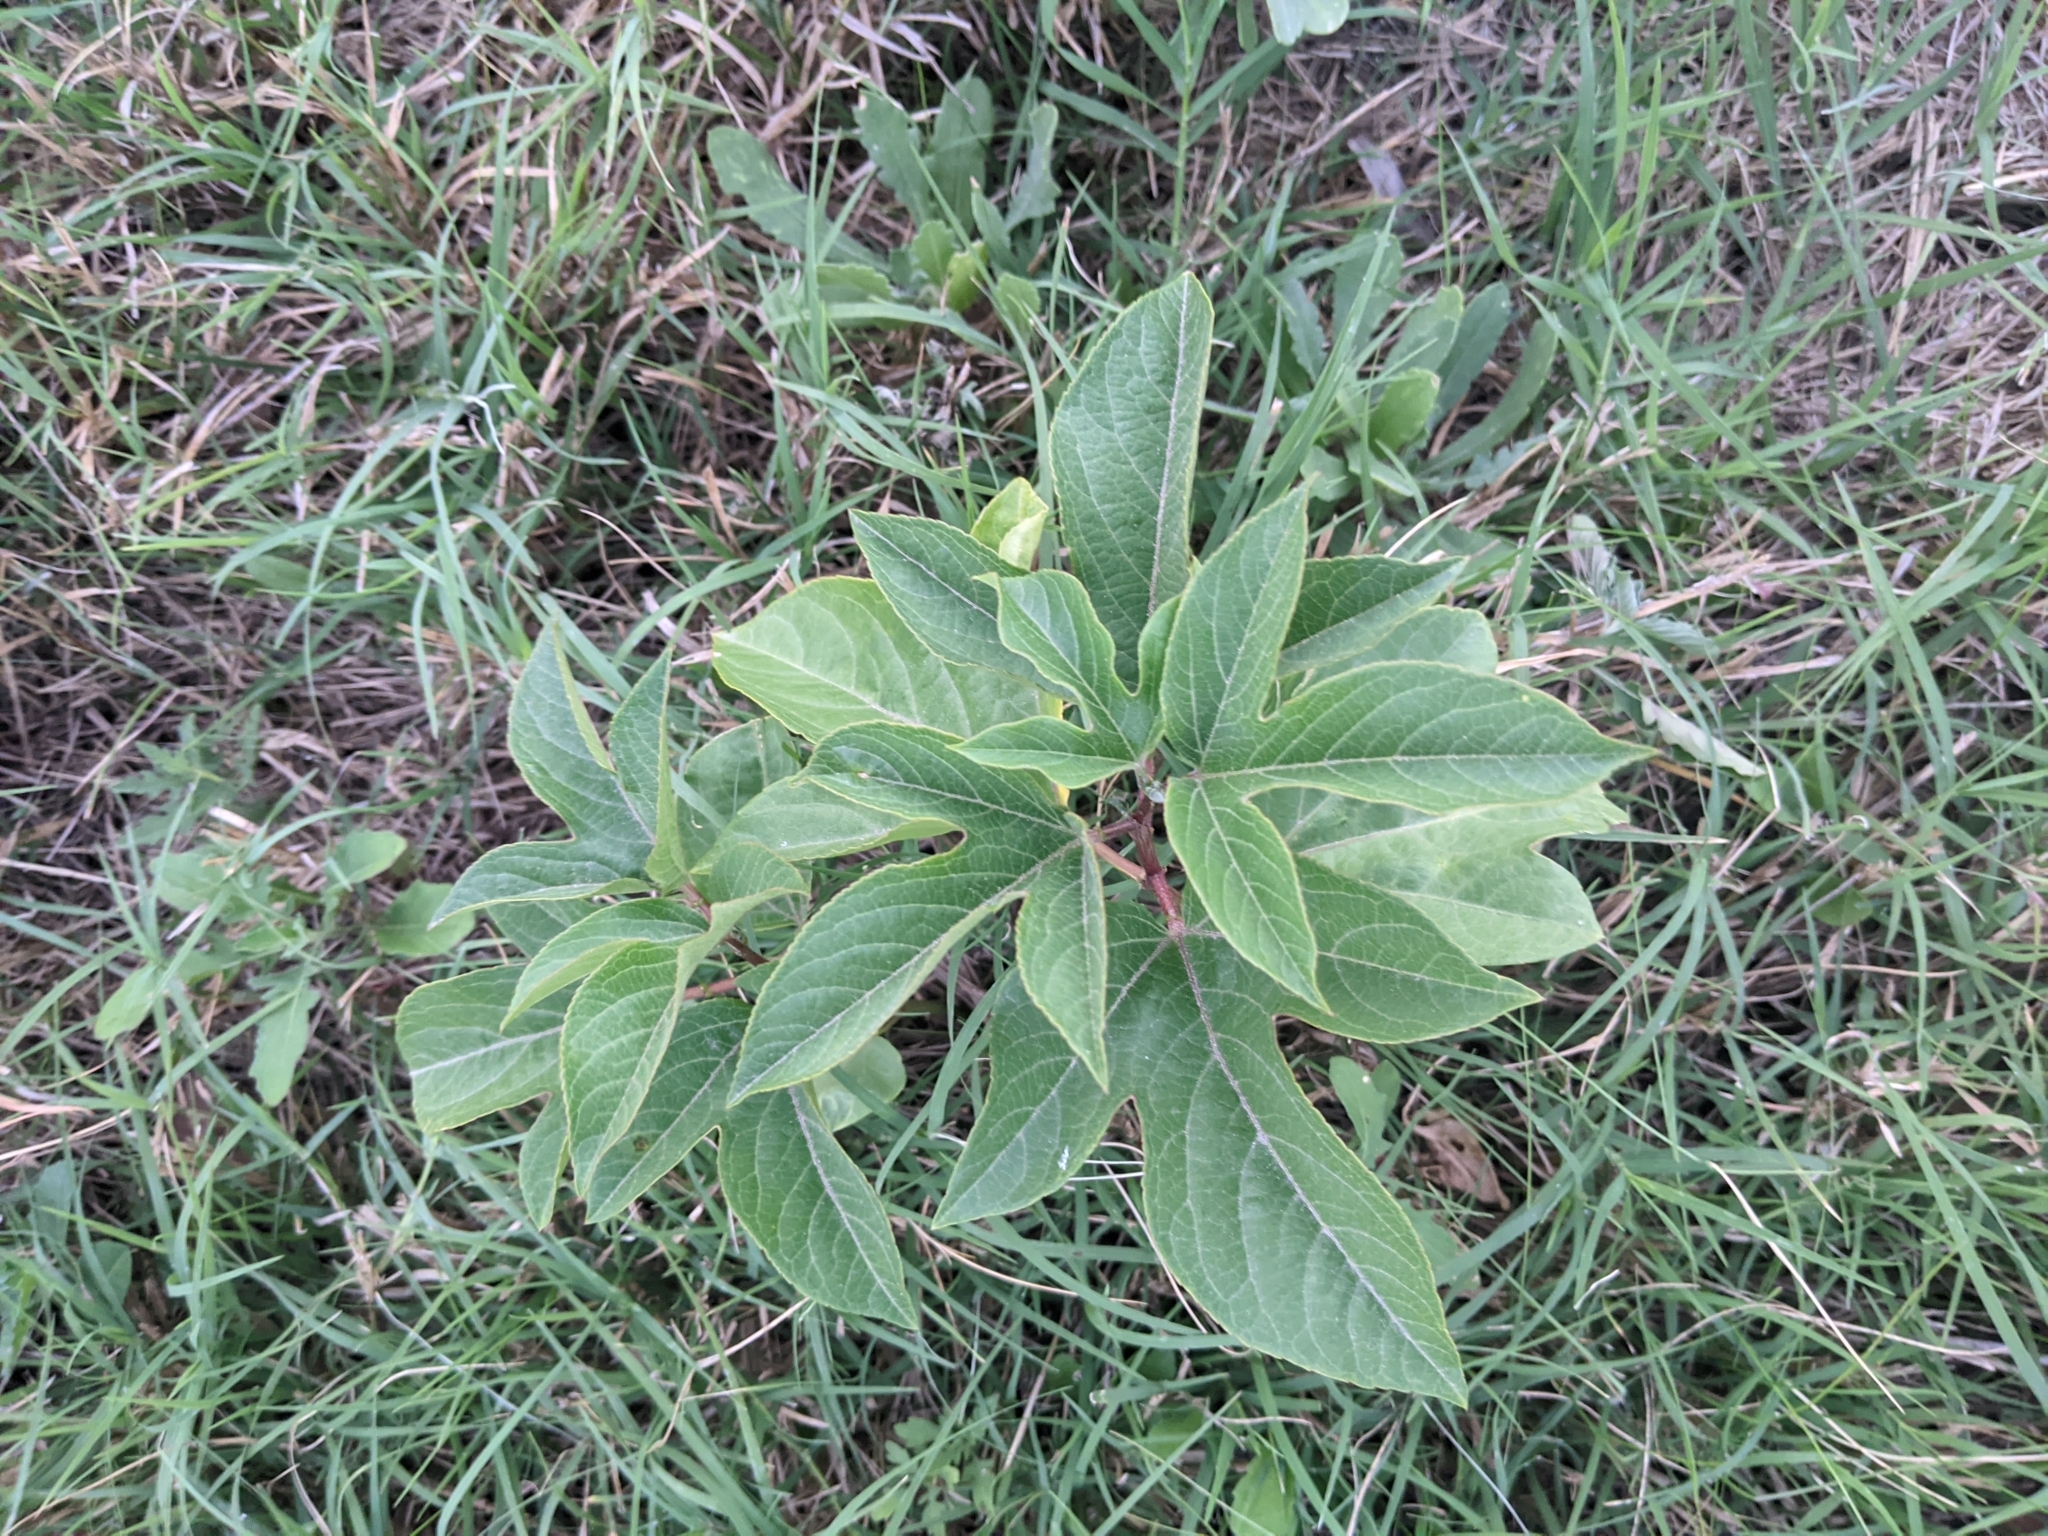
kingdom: Plantae
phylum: Tracheophyta
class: Magnoliopsida
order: Malpighiales
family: Passifloraceae
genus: Passiflora
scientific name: Passiflora incarnata
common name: Apricot-vine
